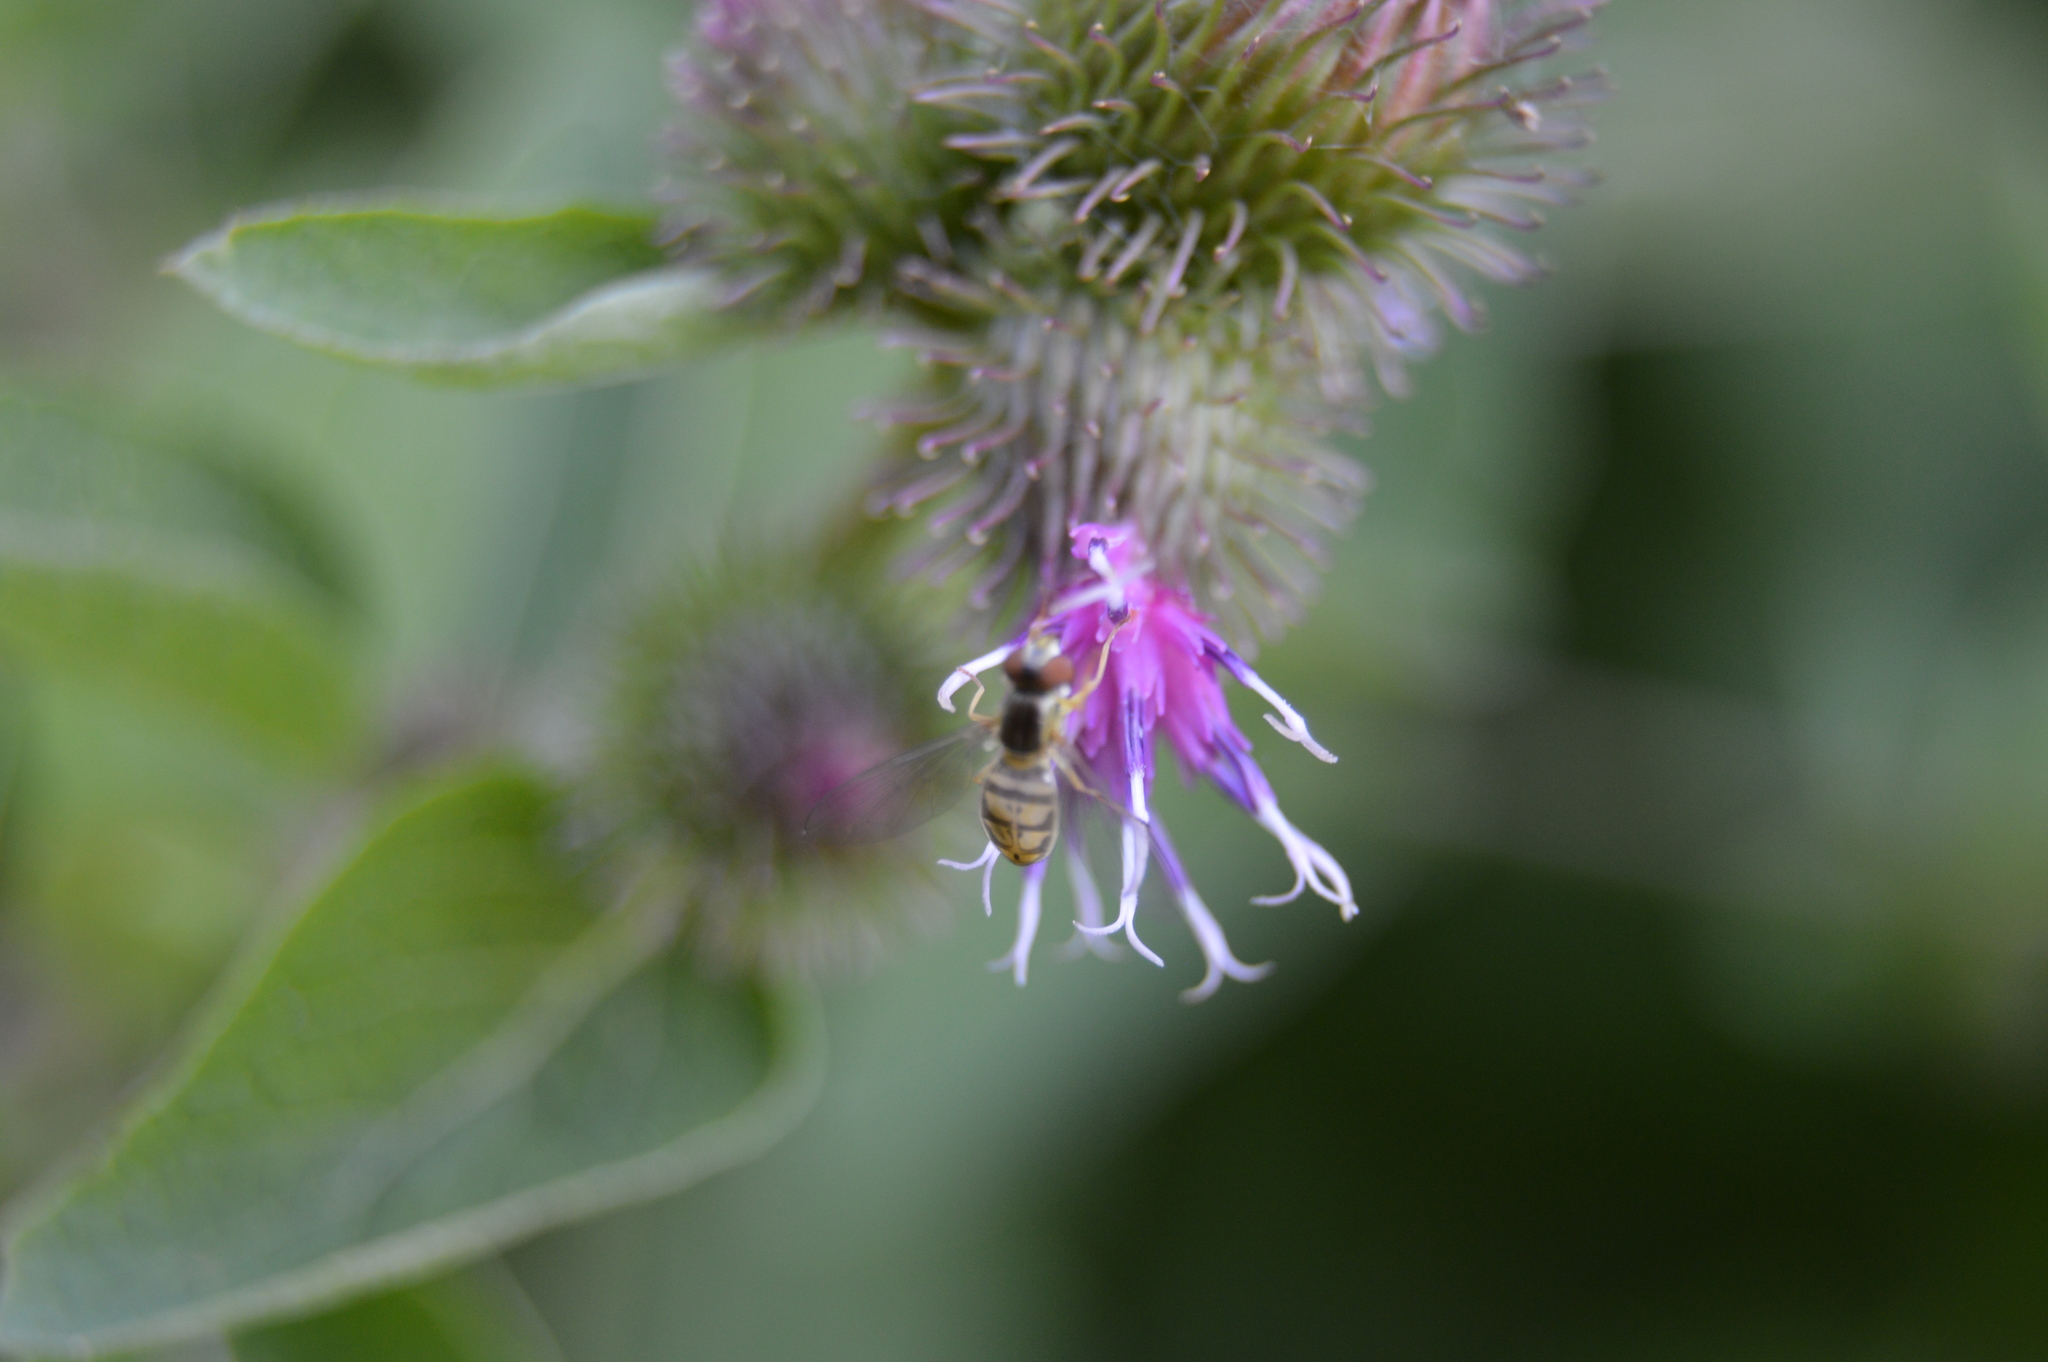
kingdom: Animalia
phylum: Arthropoda
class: Insecta
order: Diptera
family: Syrphidae
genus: Toxomerus
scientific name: Toxomerus marginatus
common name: Syrphid fly
